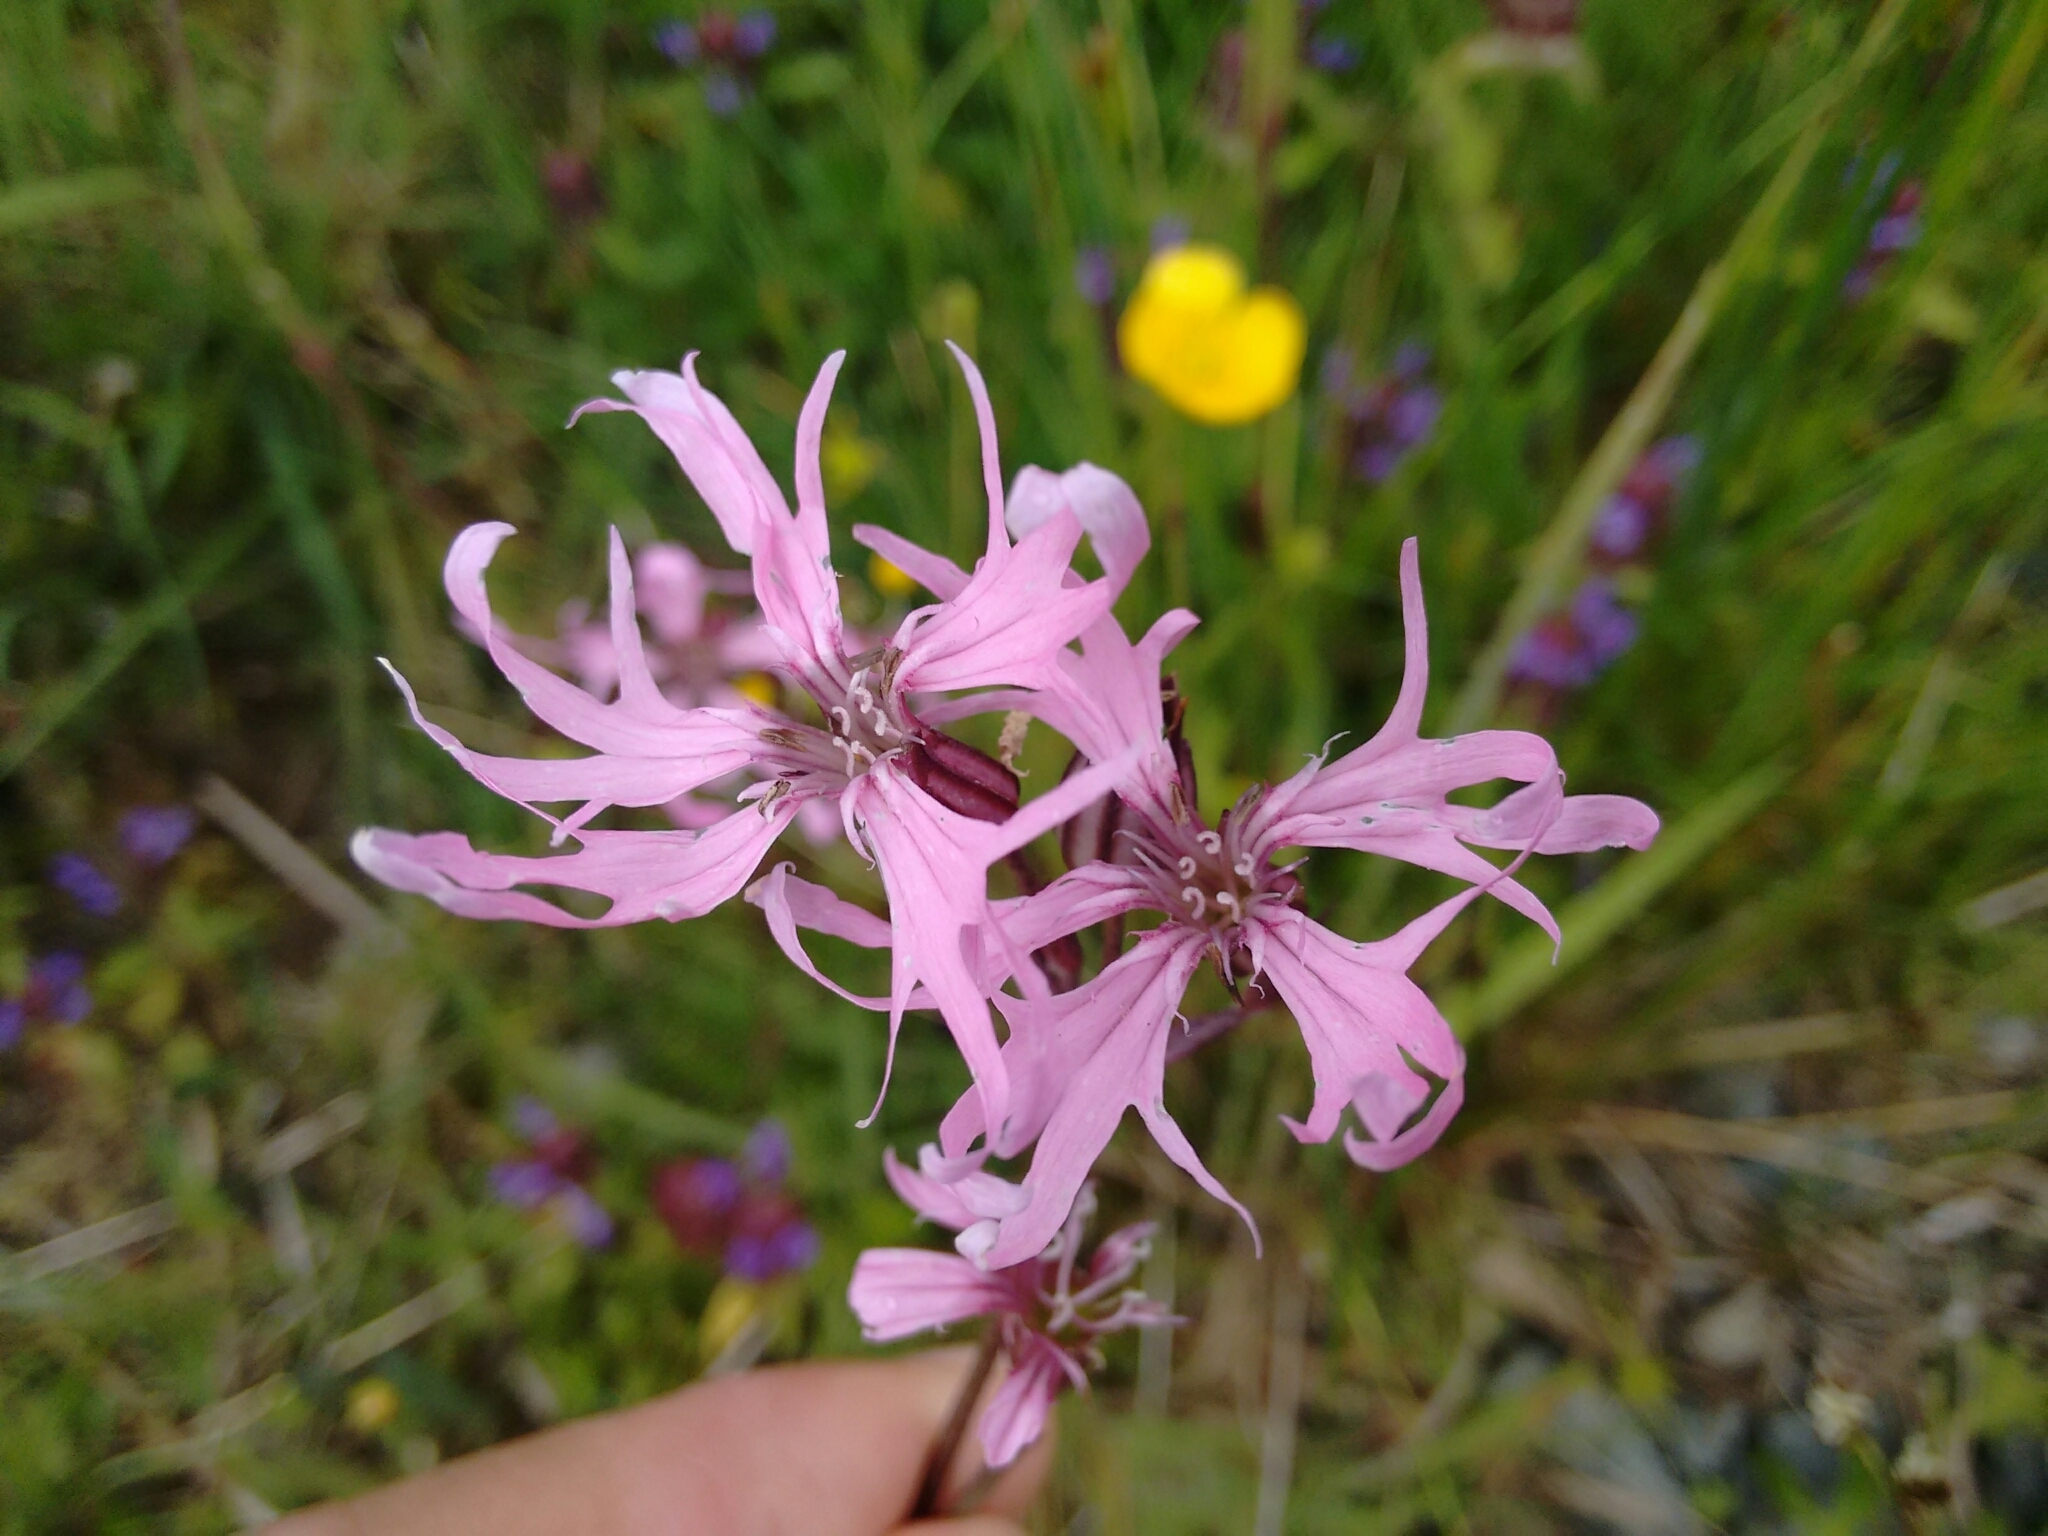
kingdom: Plantae
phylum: Tracheophyta
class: Magnoliopsida
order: Caryophyllales
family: Caryophyllaceae
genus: Silene
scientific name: Silene flos-cuculi
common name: Ragged-robin
